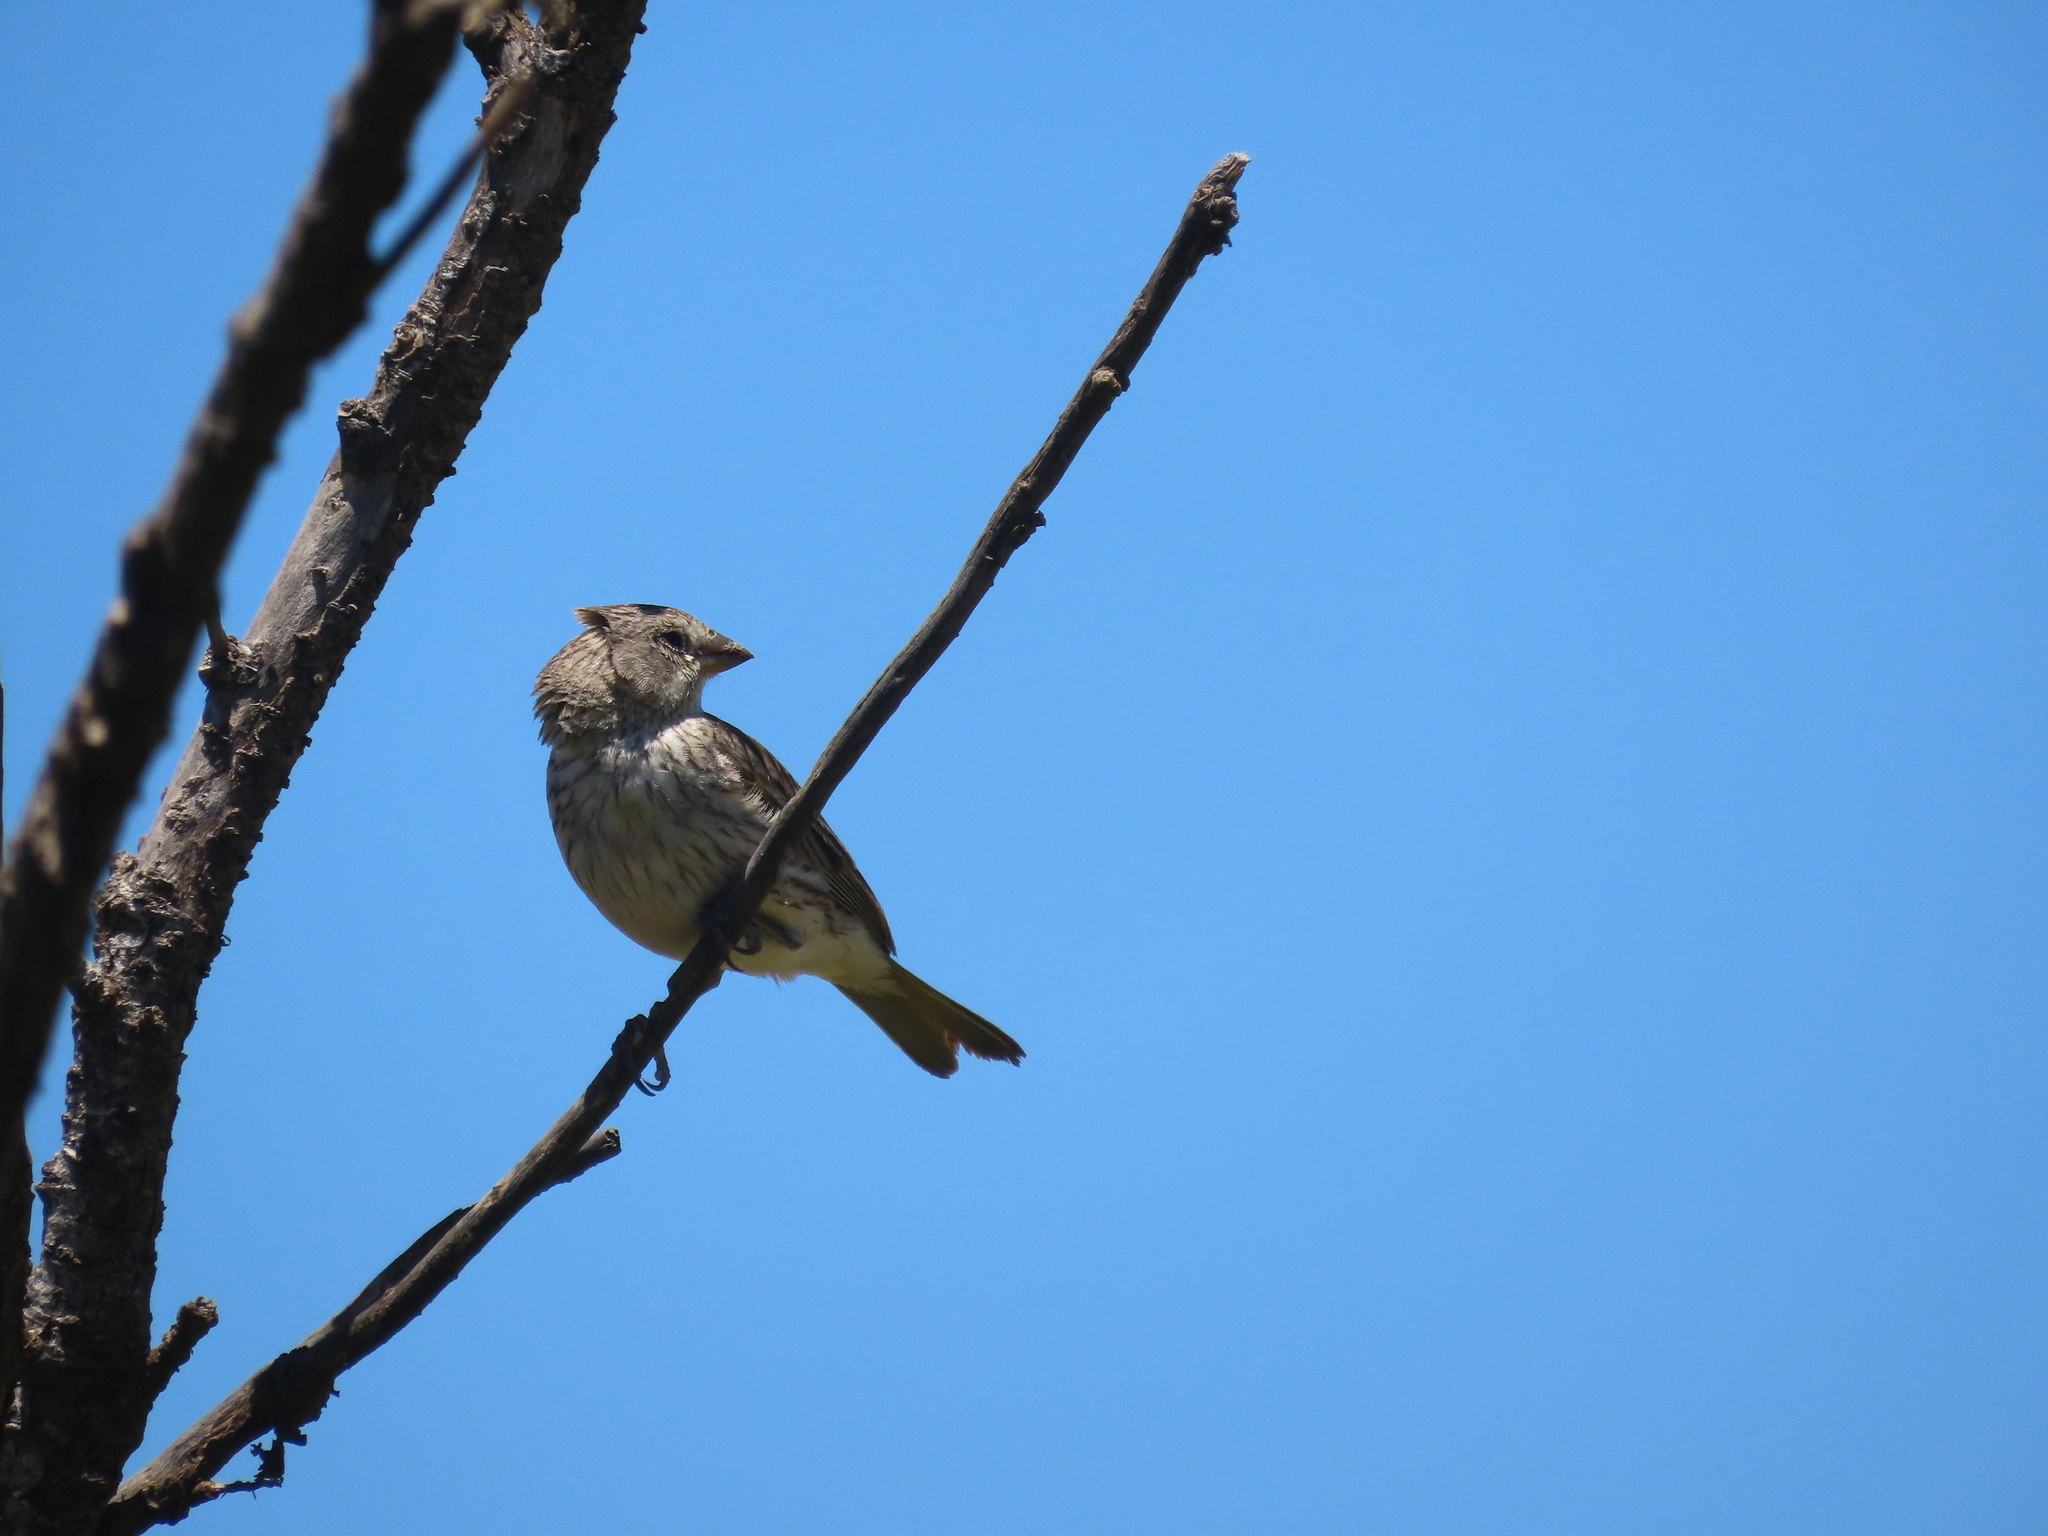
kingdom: Animalia
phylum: Chordata
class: Aves
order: Passeriformes
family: Thraupidae
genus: Sicalis
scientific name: Sicalis flaveola
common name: Saffron finch
